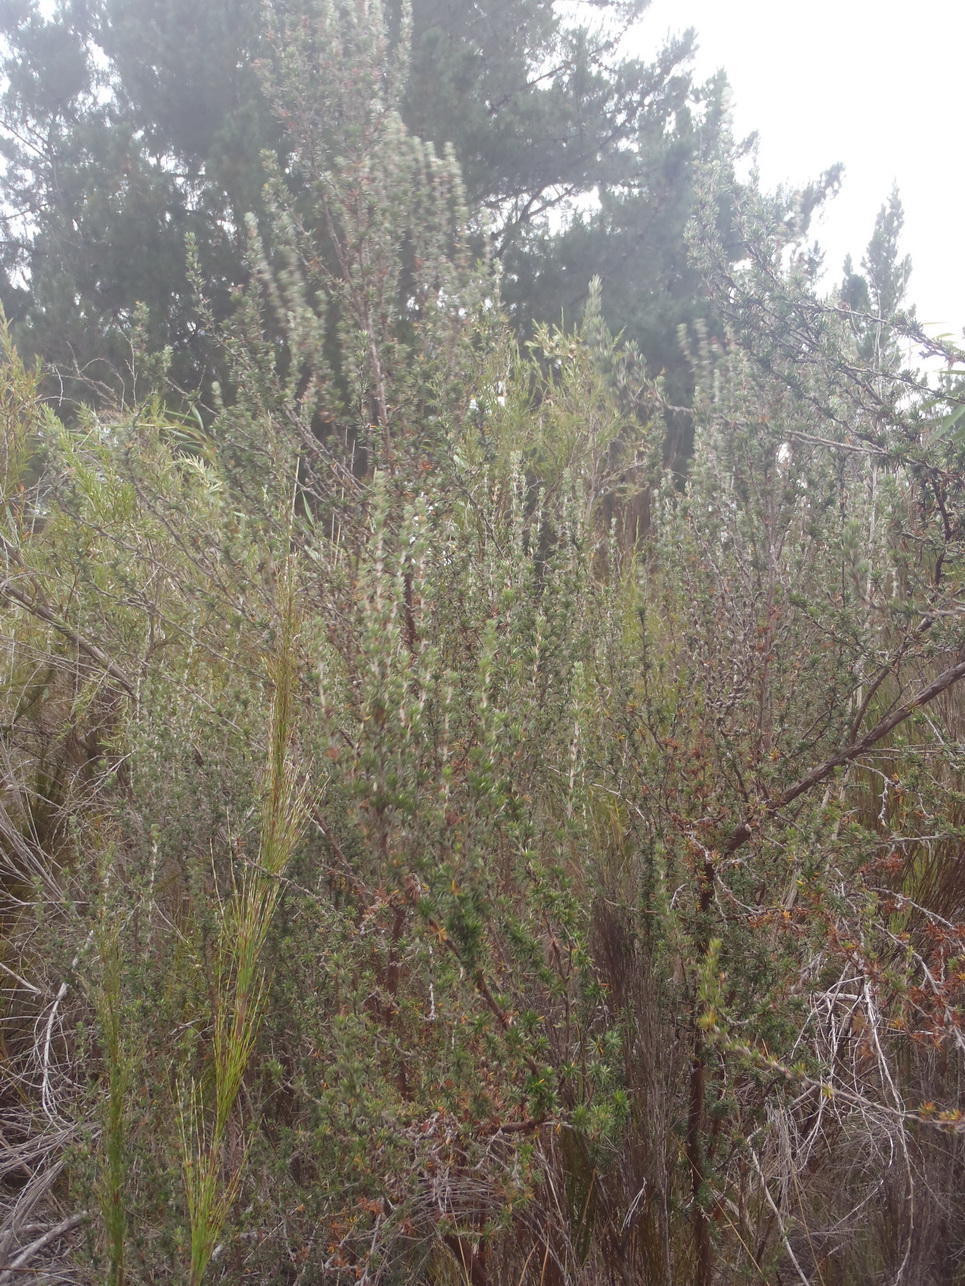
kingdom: Plantae
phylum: Tracheophyta
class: Magnoliopsida
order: Rosales
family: Rosaceae
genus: Cliffortia
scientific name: Cliffortia stricta
